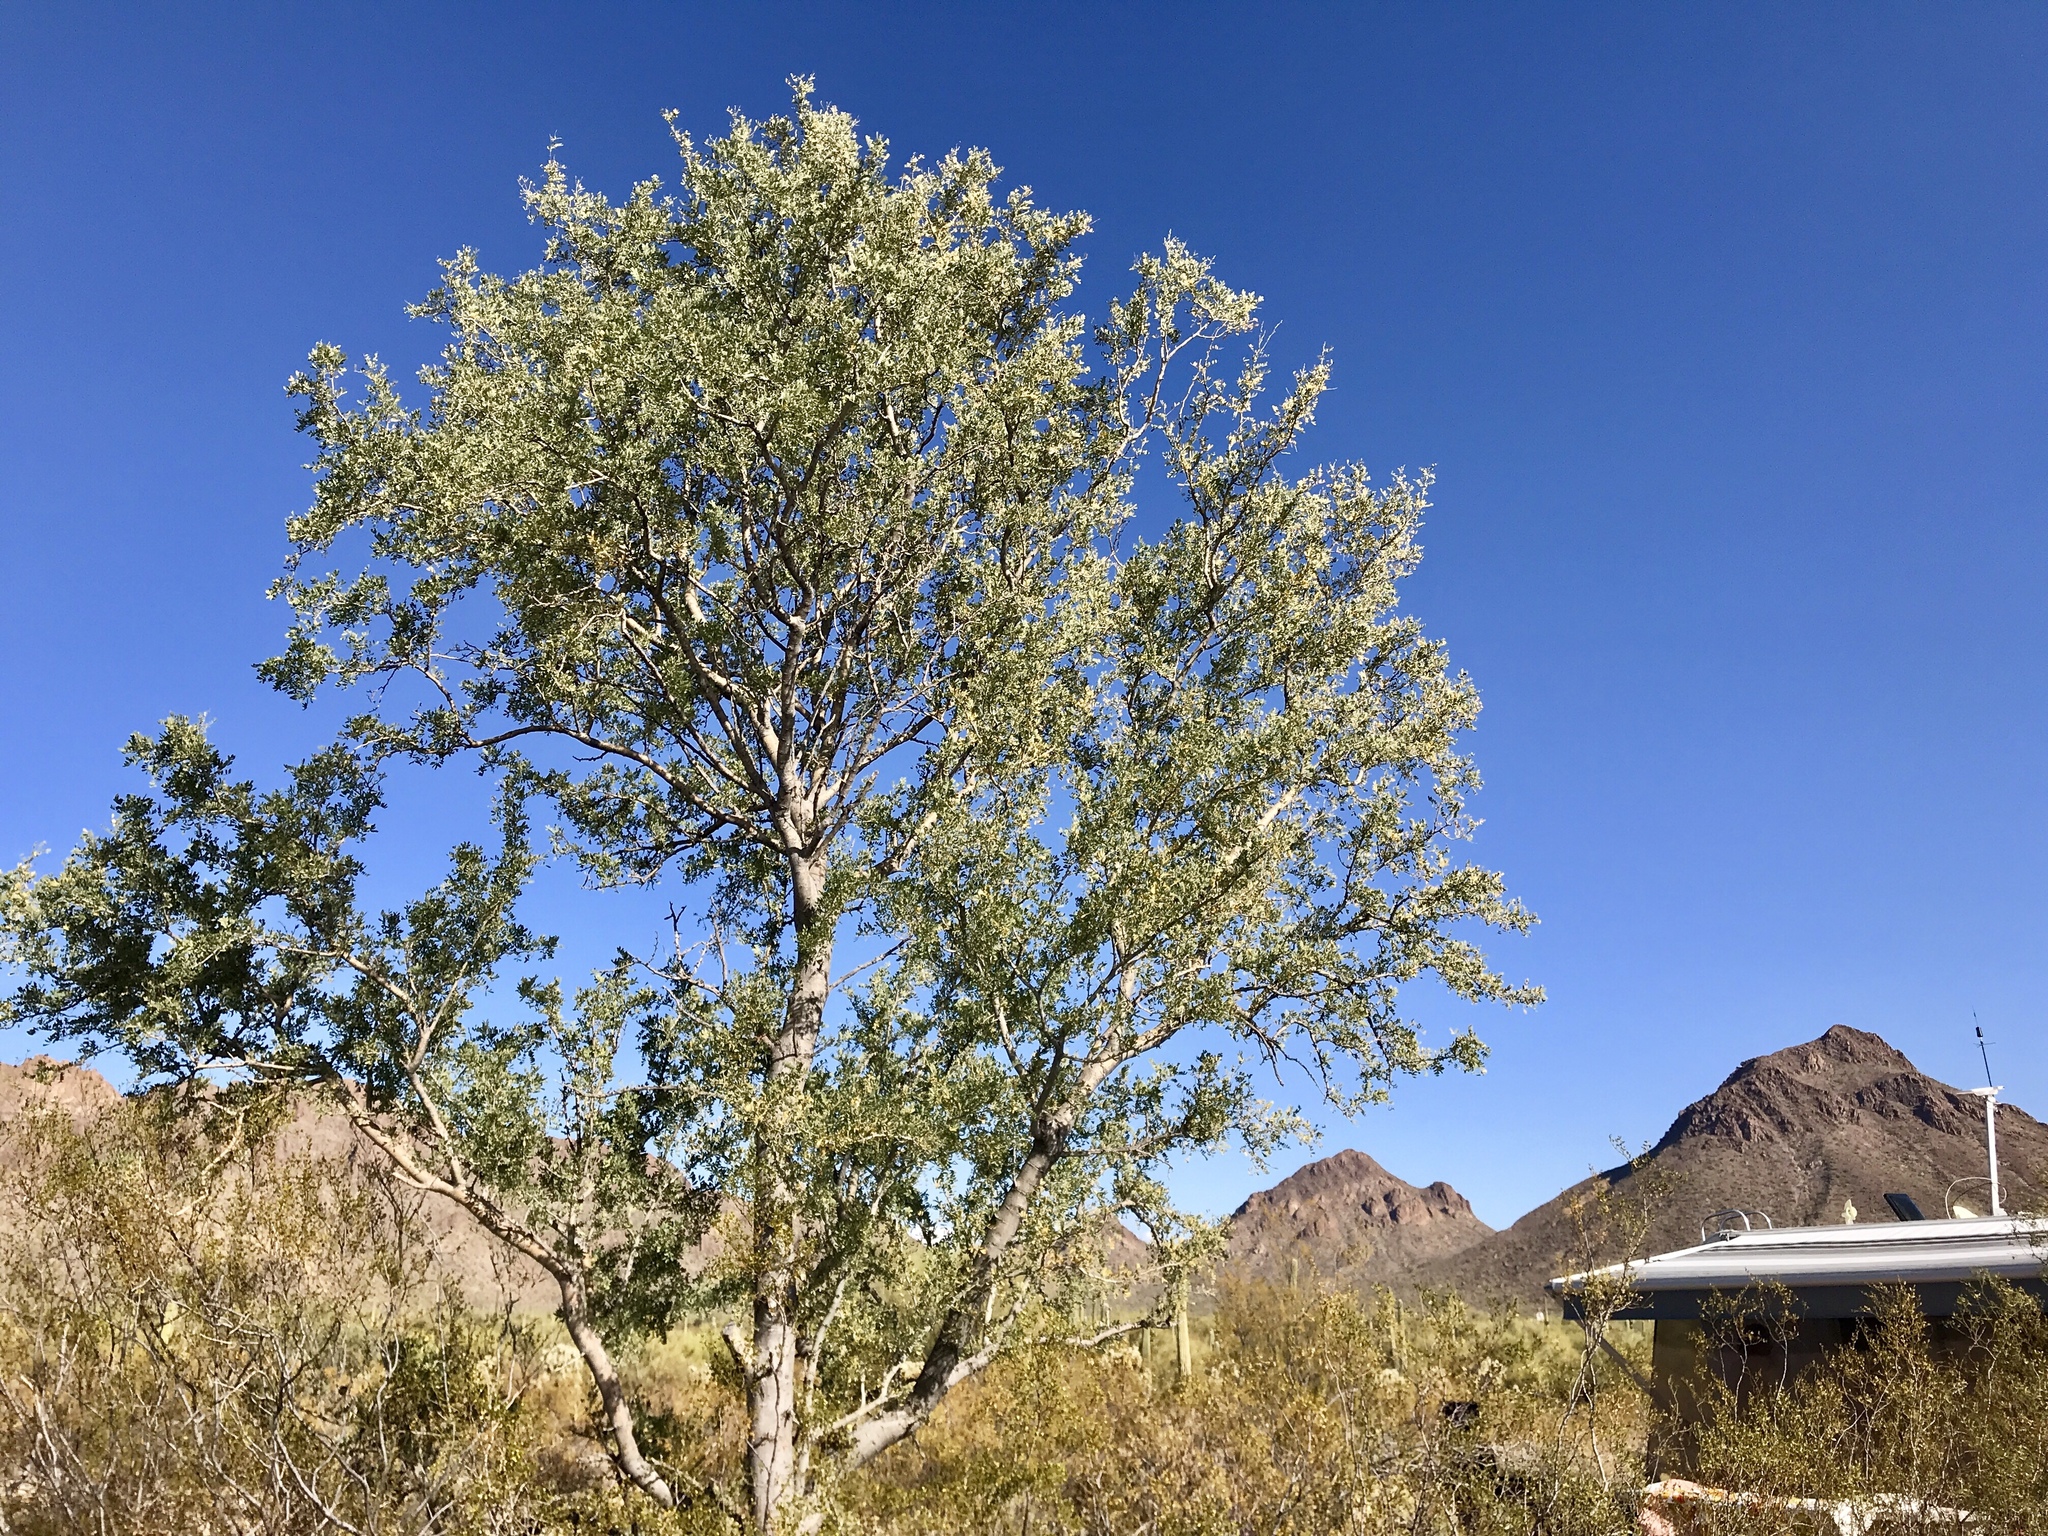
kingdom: Plantae
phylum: Tracheophyta
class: Magnoliopsida
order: Fabales
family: Fabaceae
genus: Olneya
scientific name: Olneya tesota
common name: Desert ironwood
